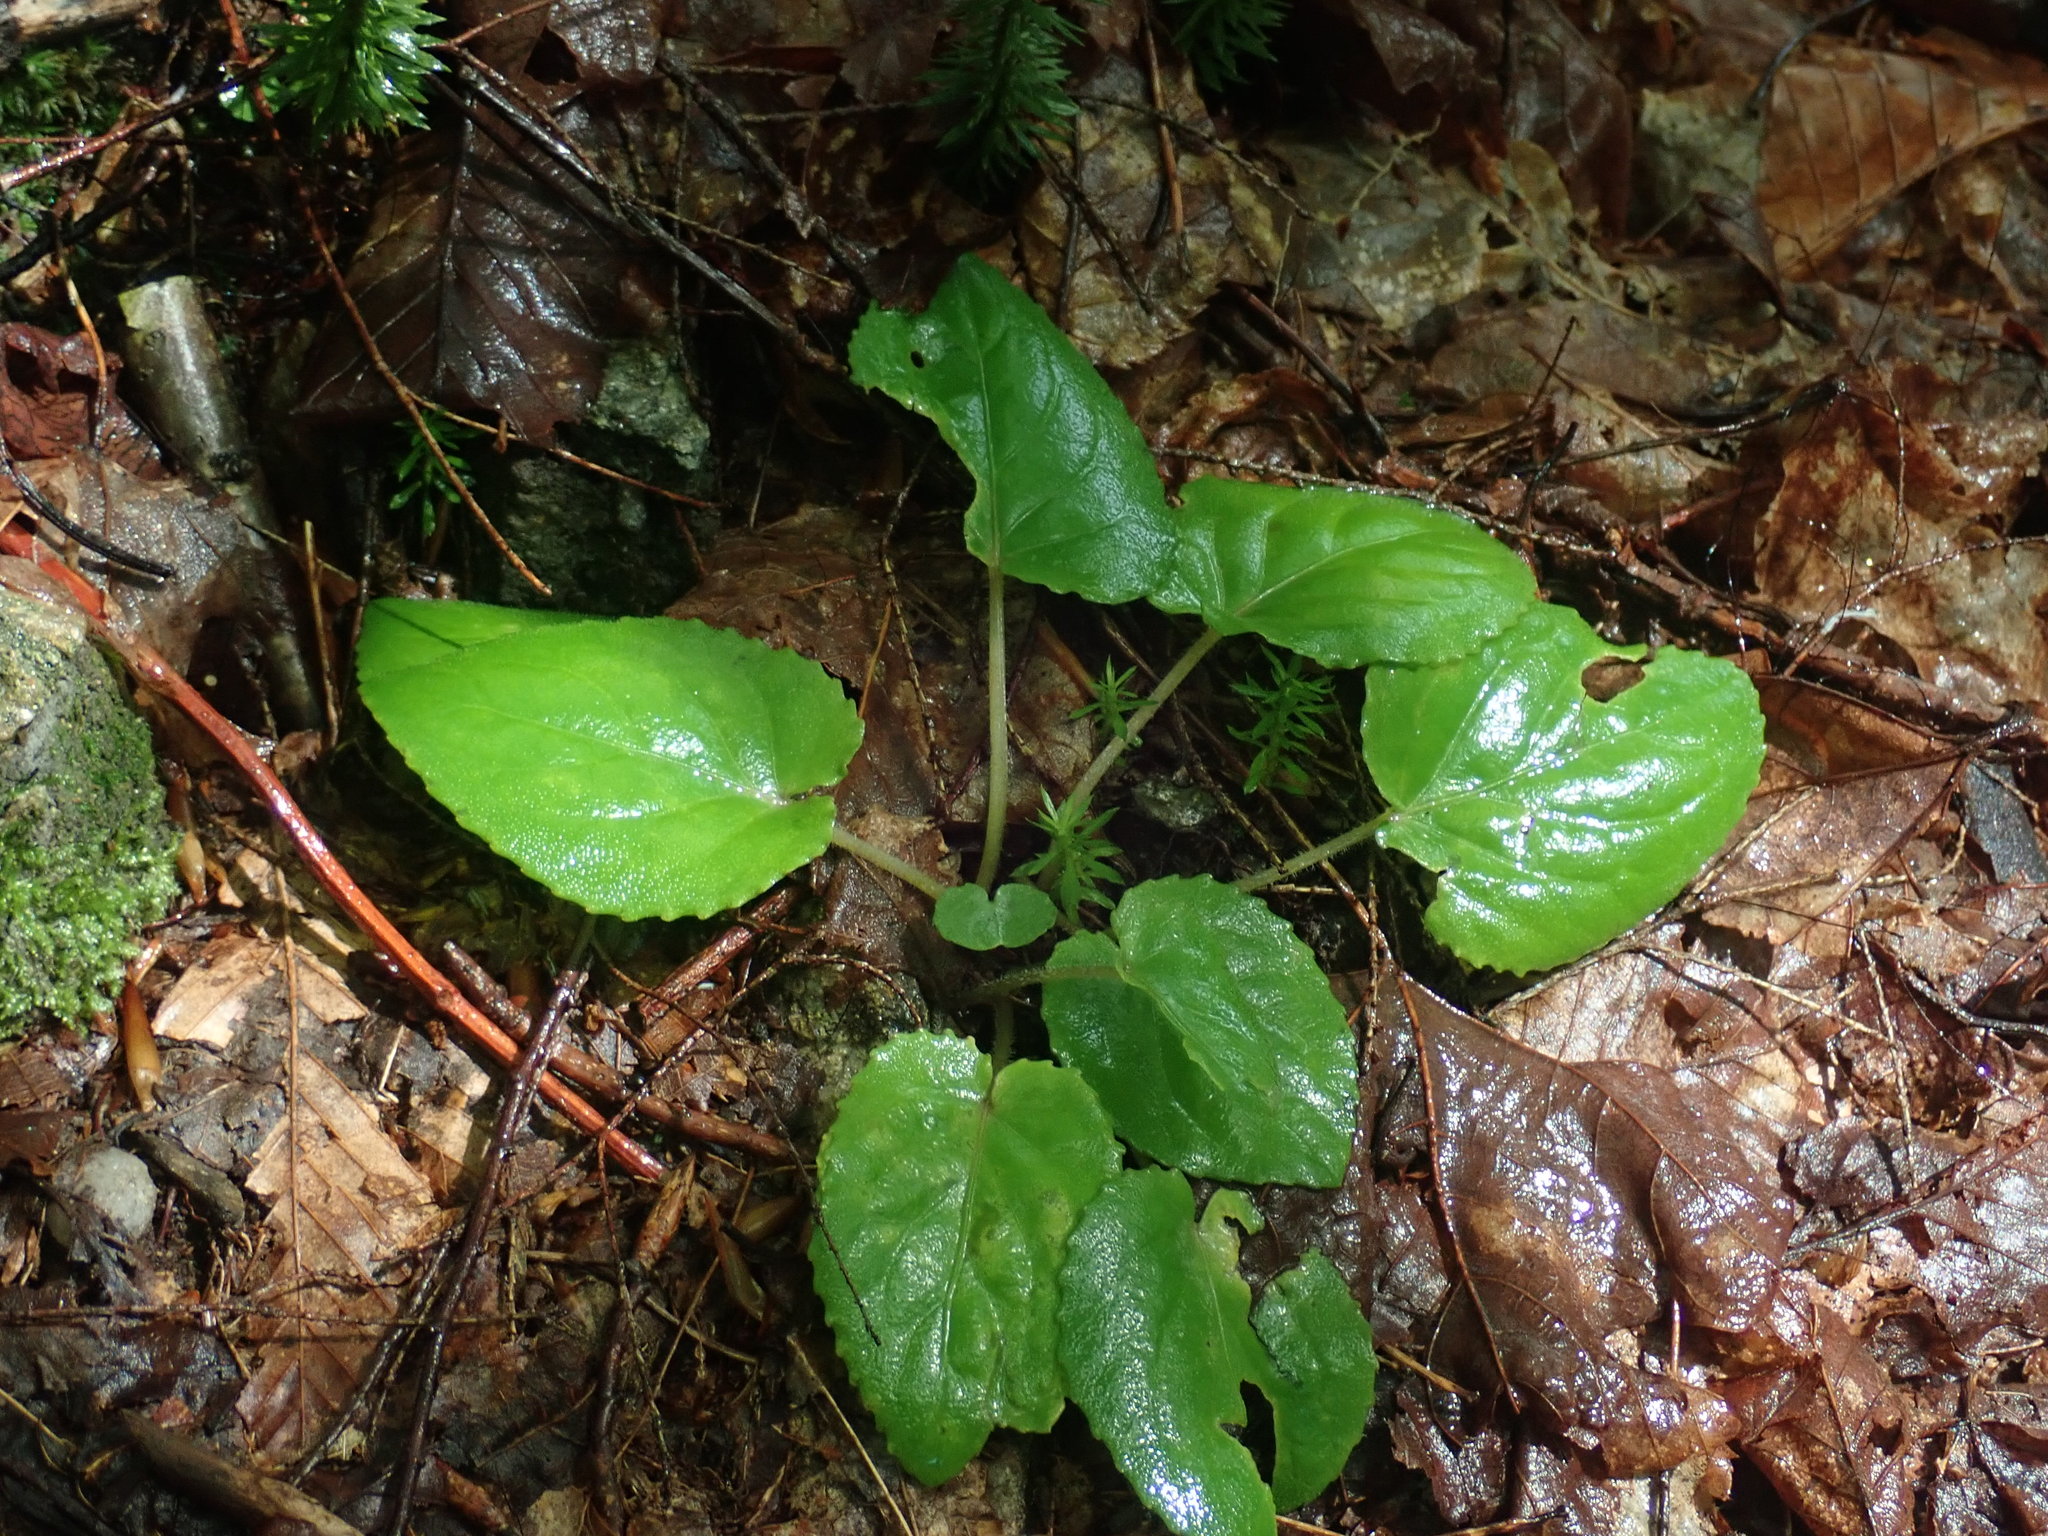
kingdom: Plantae
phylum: Tracheophyta
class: Magnoliopsida
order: Malpighiales
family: Violaceae
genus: Viola
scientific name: Viola rotundifolia
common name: Early yellow violet
